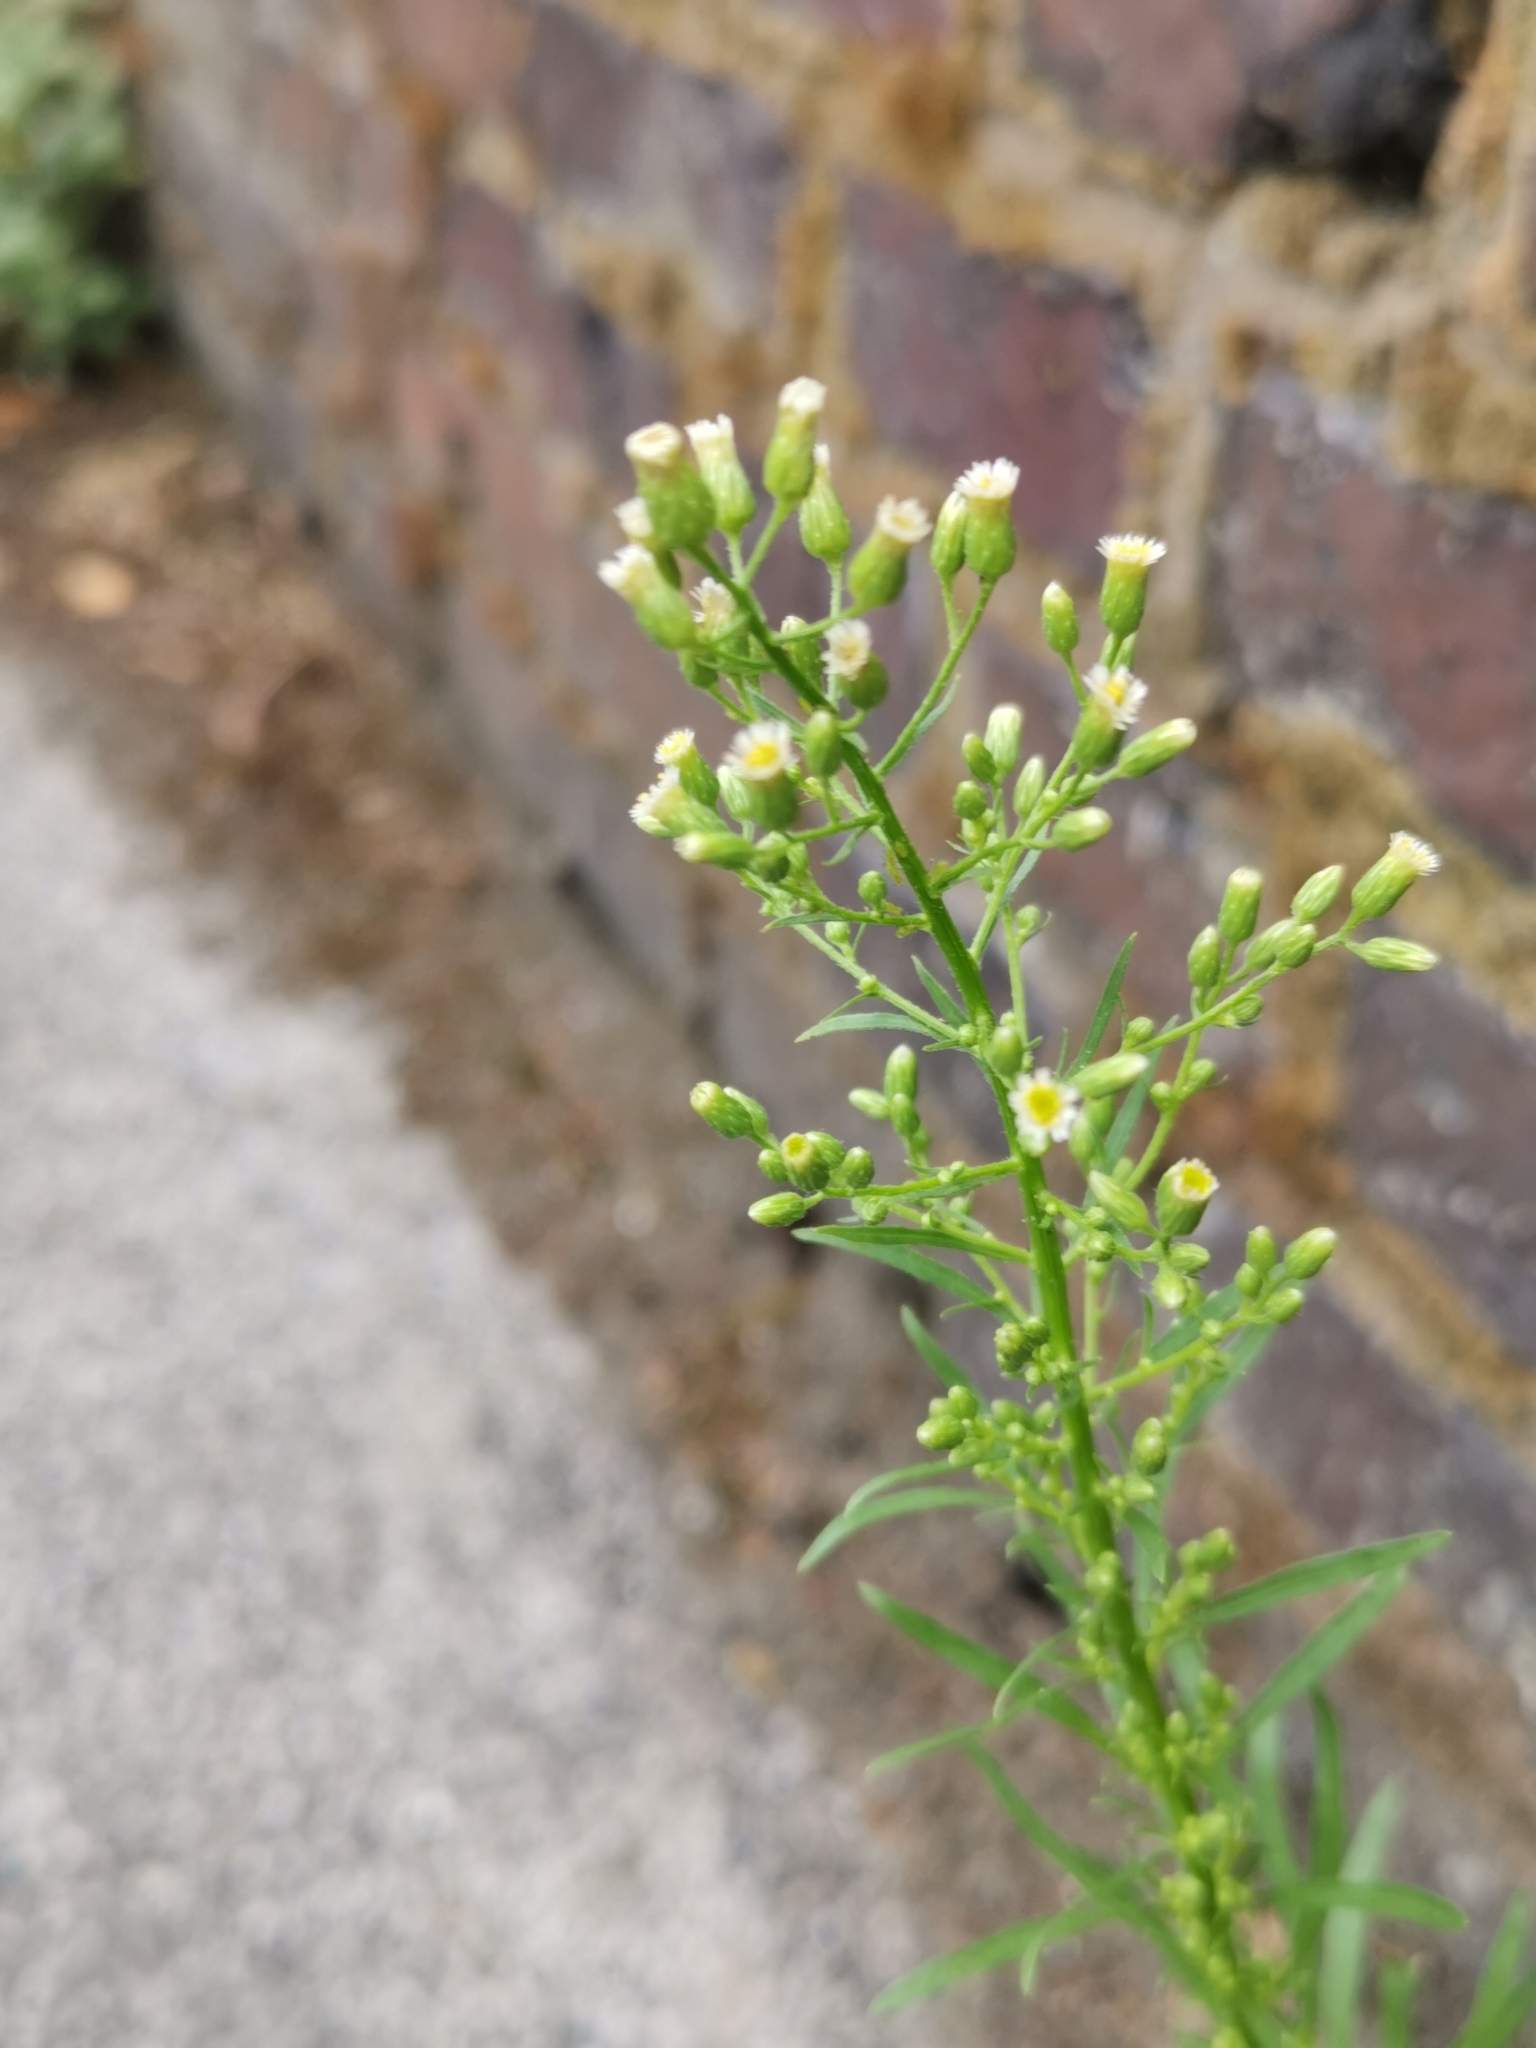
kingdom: Plantae
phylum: Tracheophyta
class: Magnoliopsida
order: Asterales
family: Asteraceae
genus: Erigeron
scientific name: Erigeron canadensis
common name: Canadian fleabane
